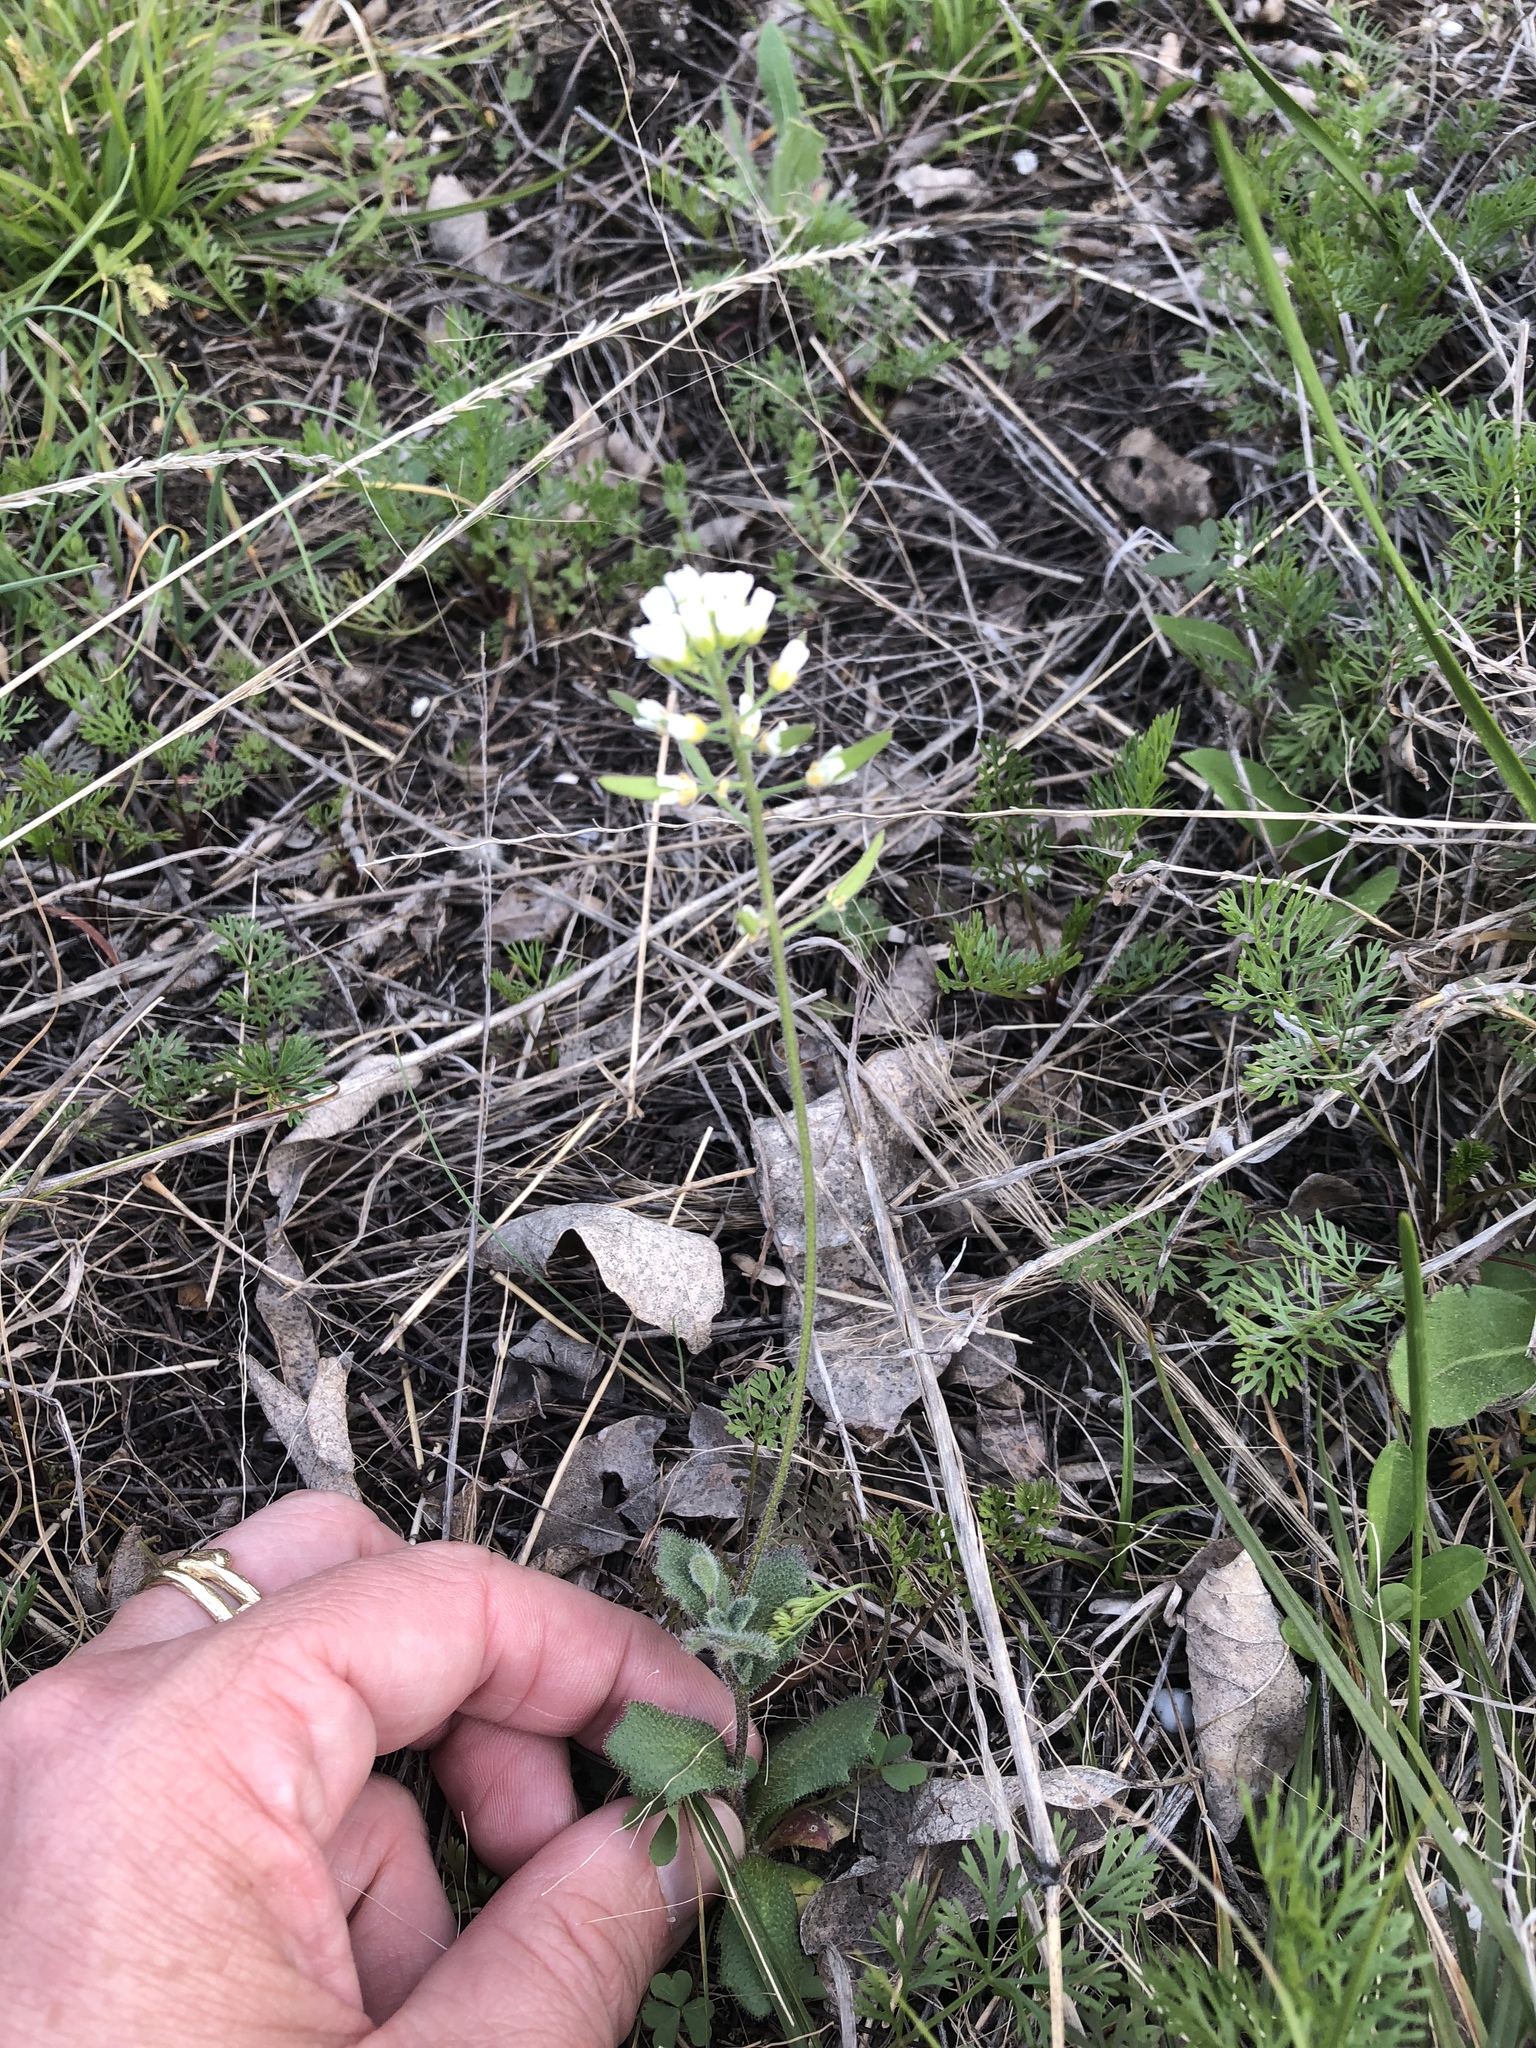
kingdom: Plantae
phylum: Tracheophyta
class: Magnoliopsida
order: Brassicales
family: Brassicaceae
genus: Tomostima
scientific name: Tomostima cuneifolia
